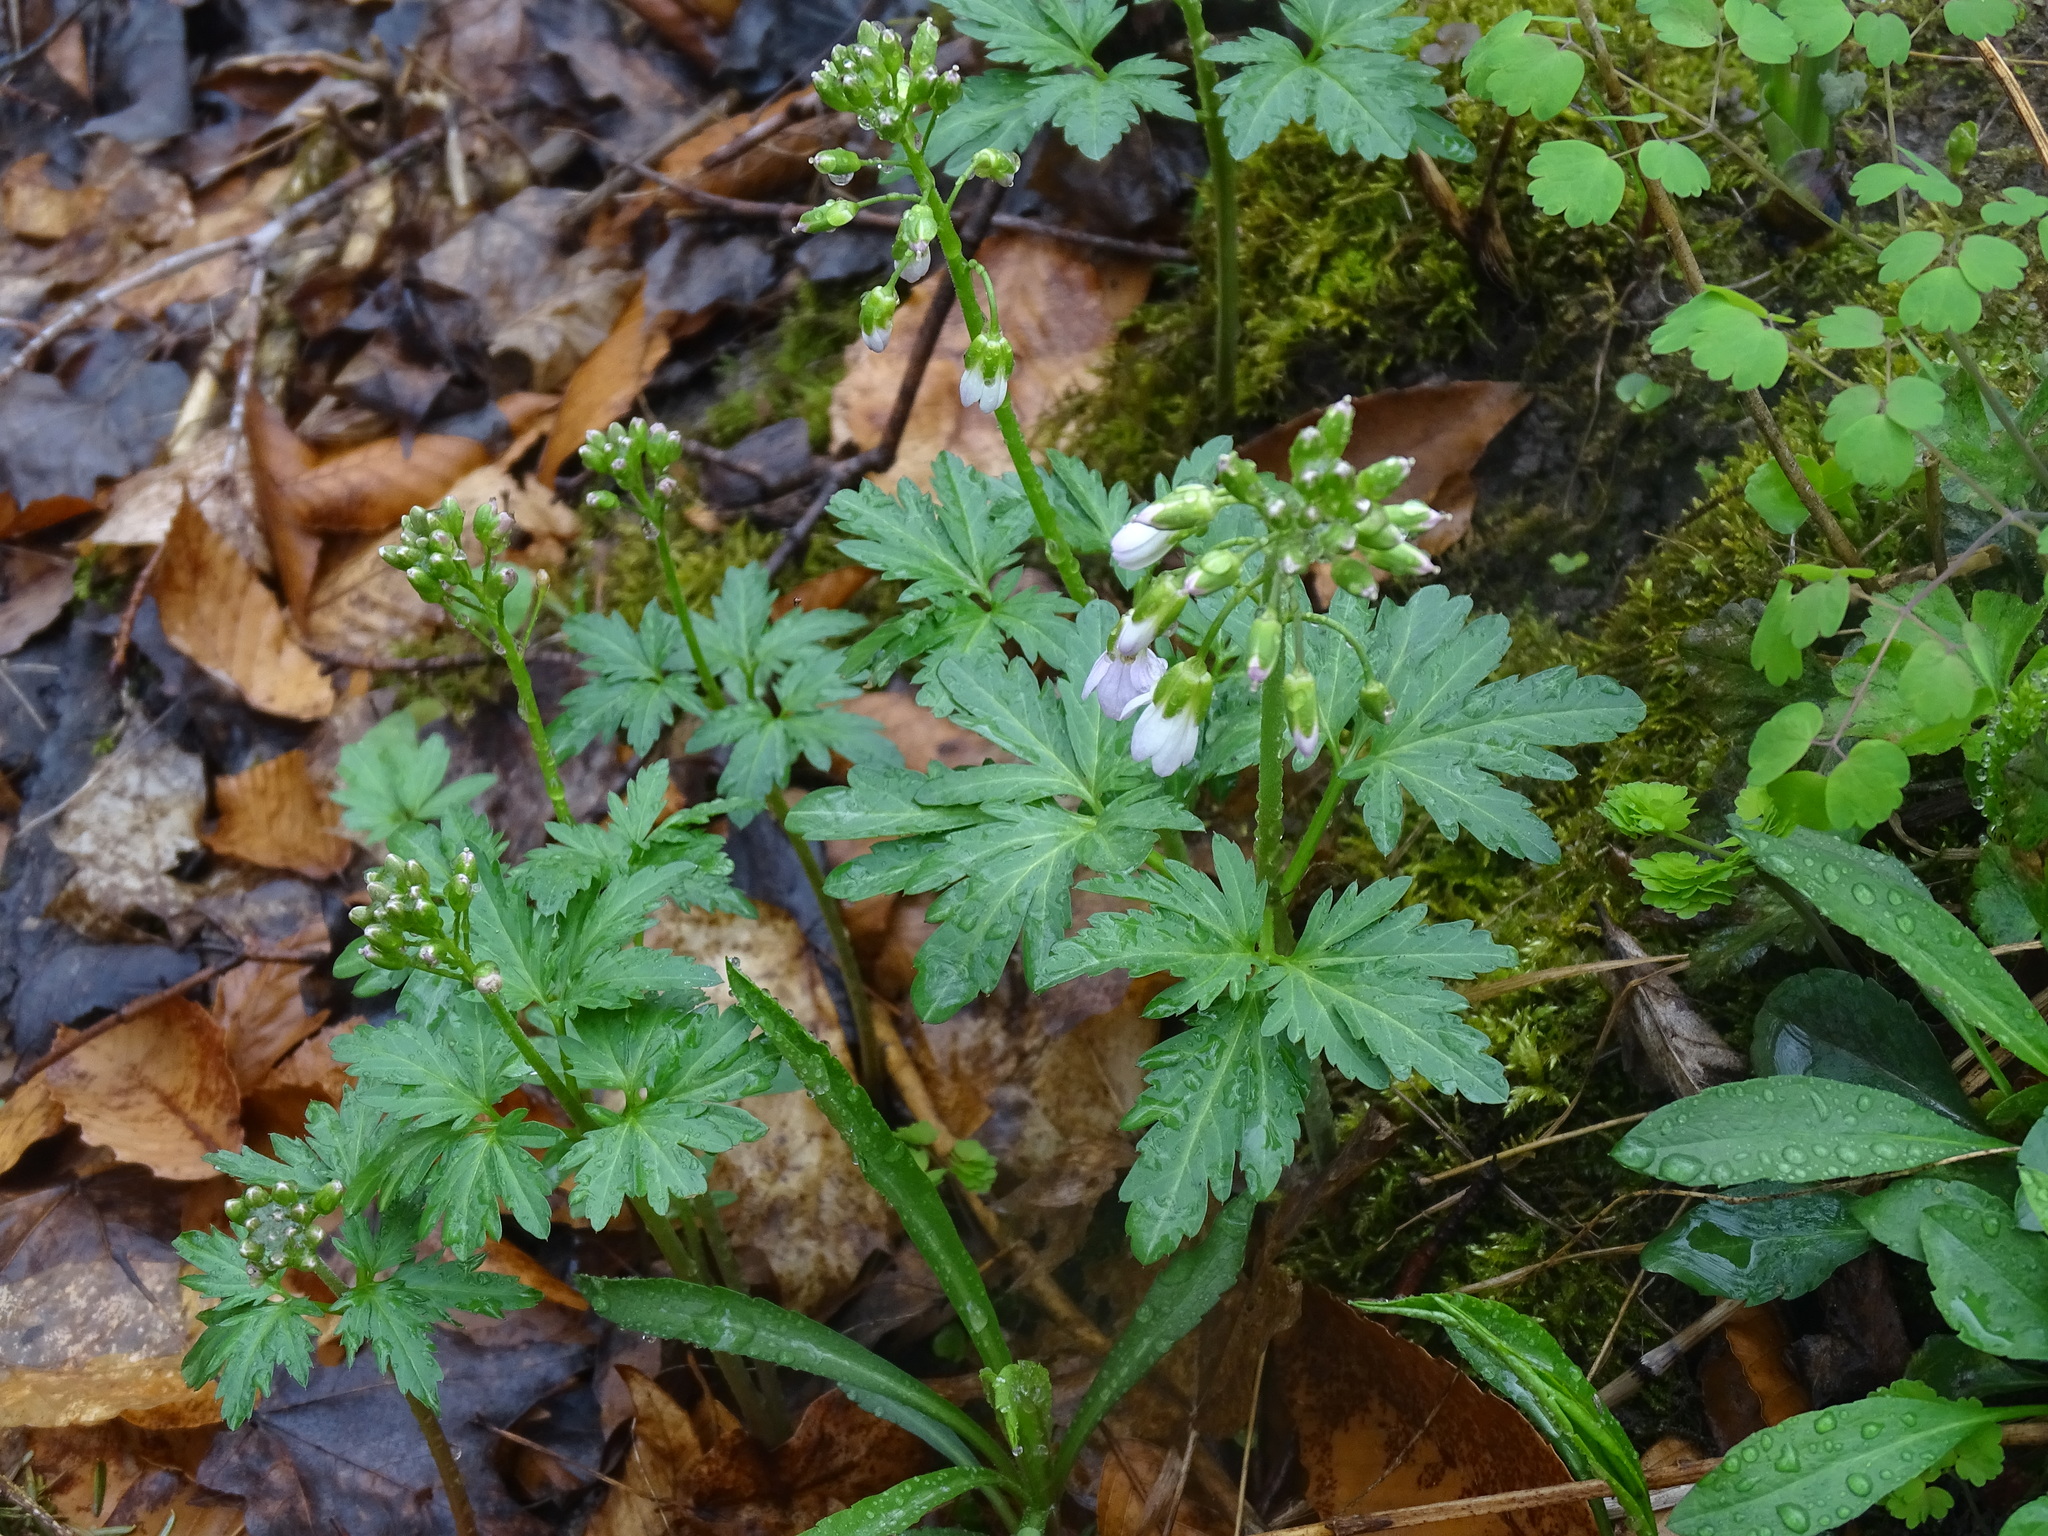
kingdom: Plantae
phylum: Tracheophyta
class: Magnoliopsida
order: Brassicales
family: Brassicaceae
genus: Cardamine
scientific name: Cardamine concatenata
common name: Cut-leaf toothcup
